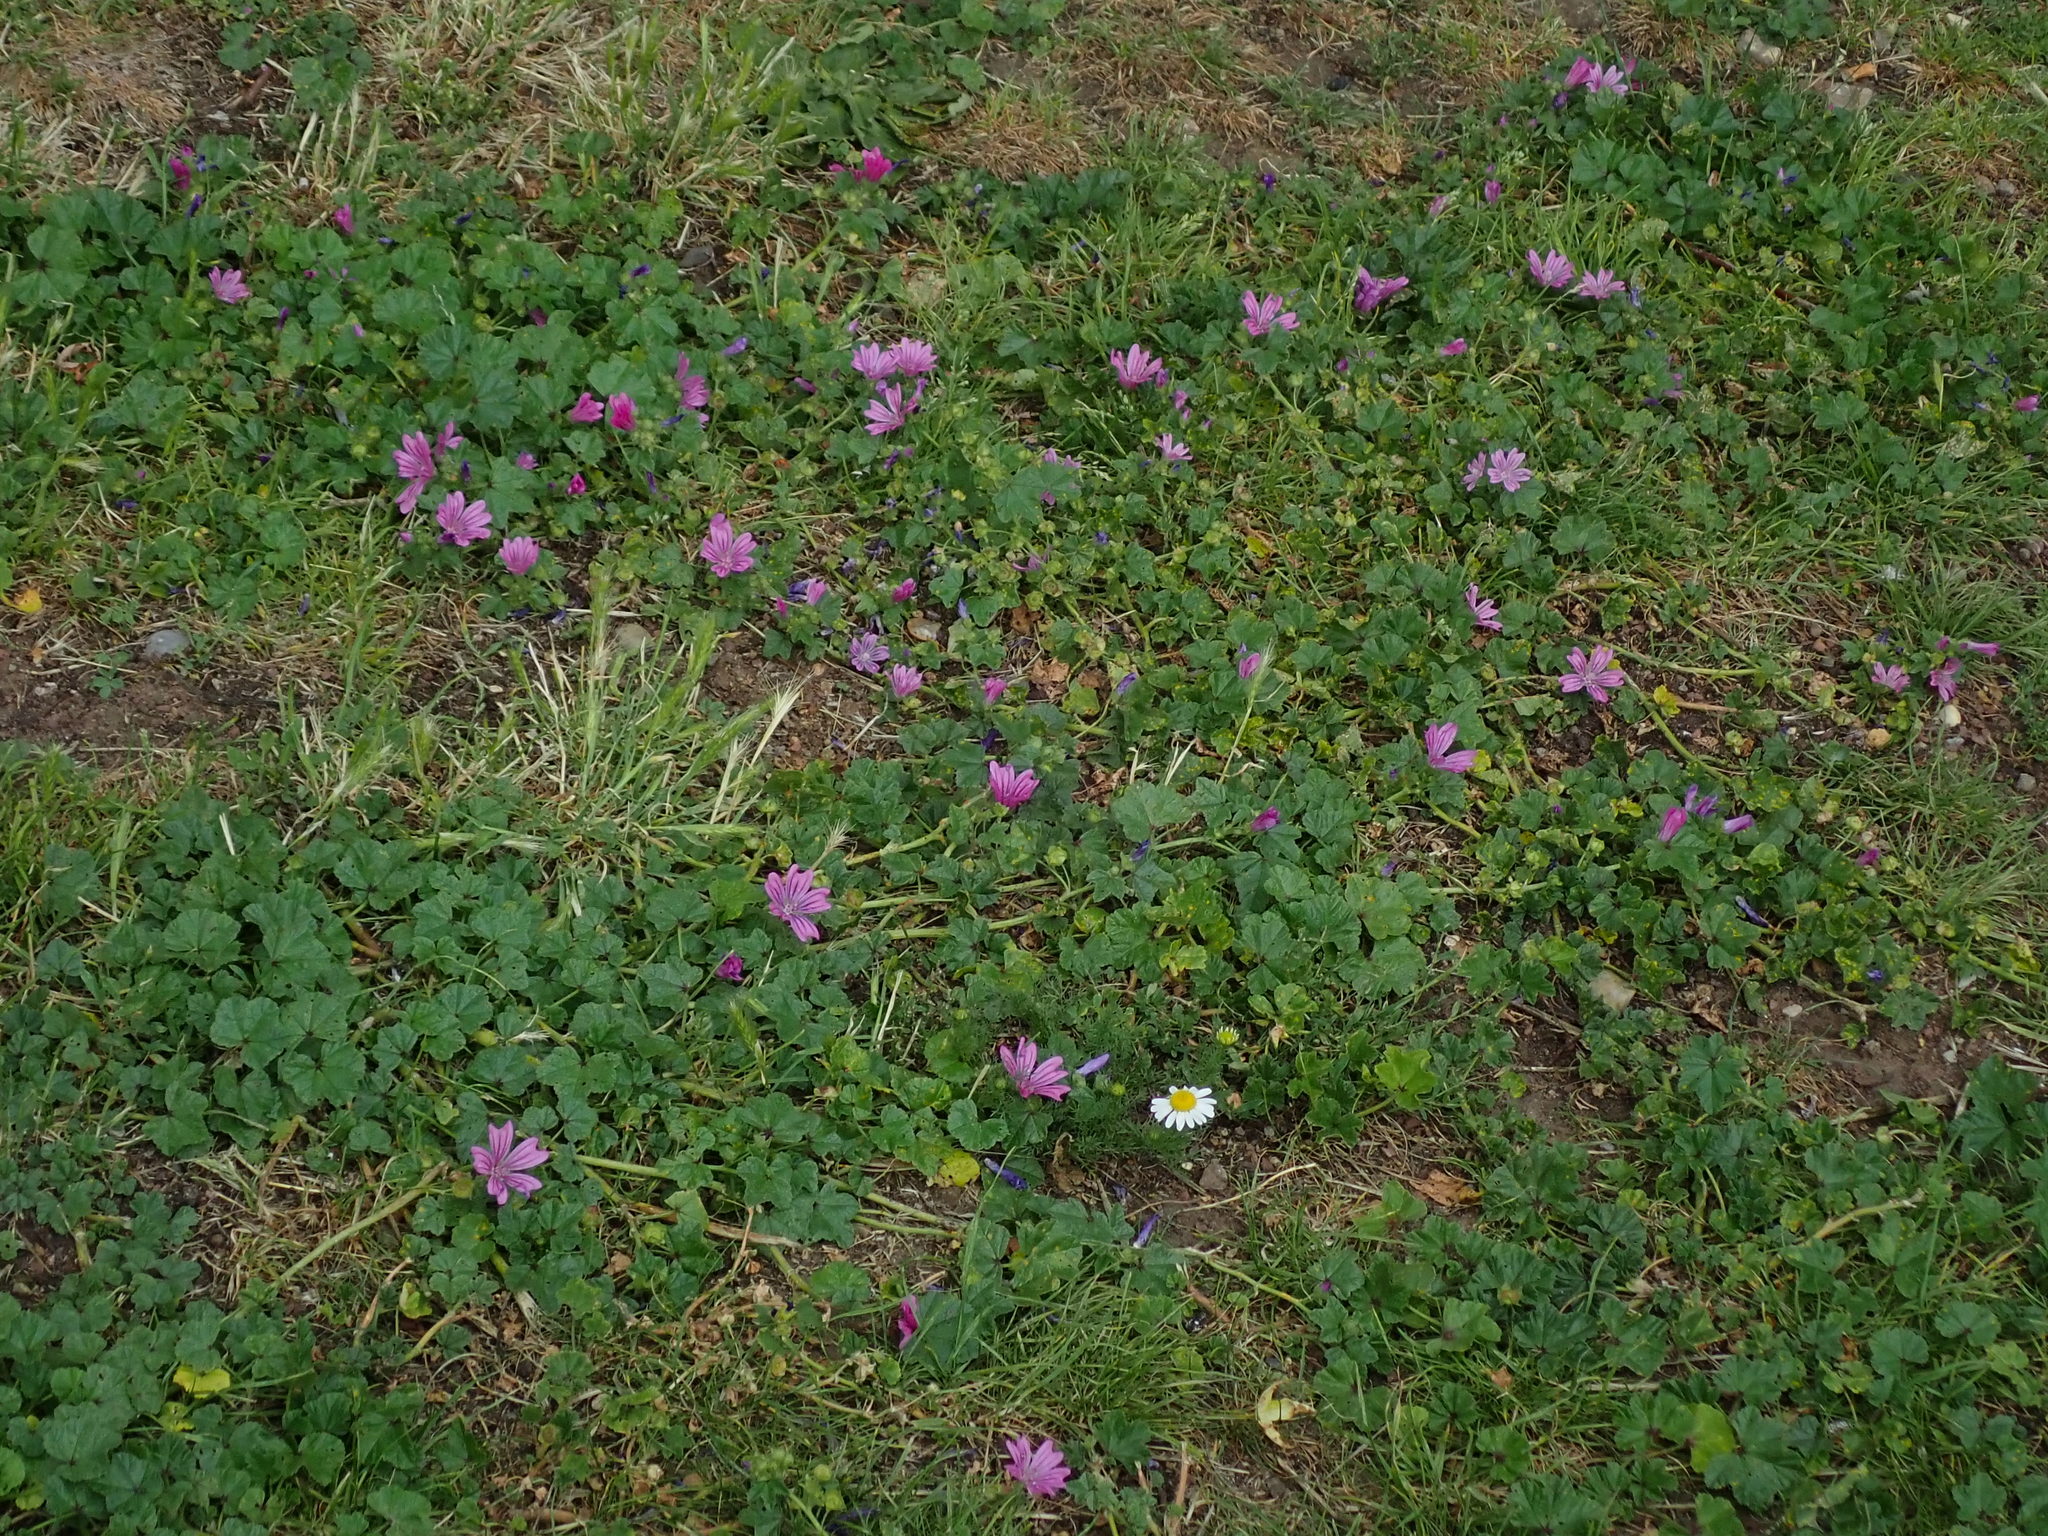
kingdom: Plantae
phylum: Tracheophyta
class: Magnoliopsida
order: Malvales
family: Malvaceae
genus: Malva
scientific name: Malva sylvestris
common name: Common mallow
